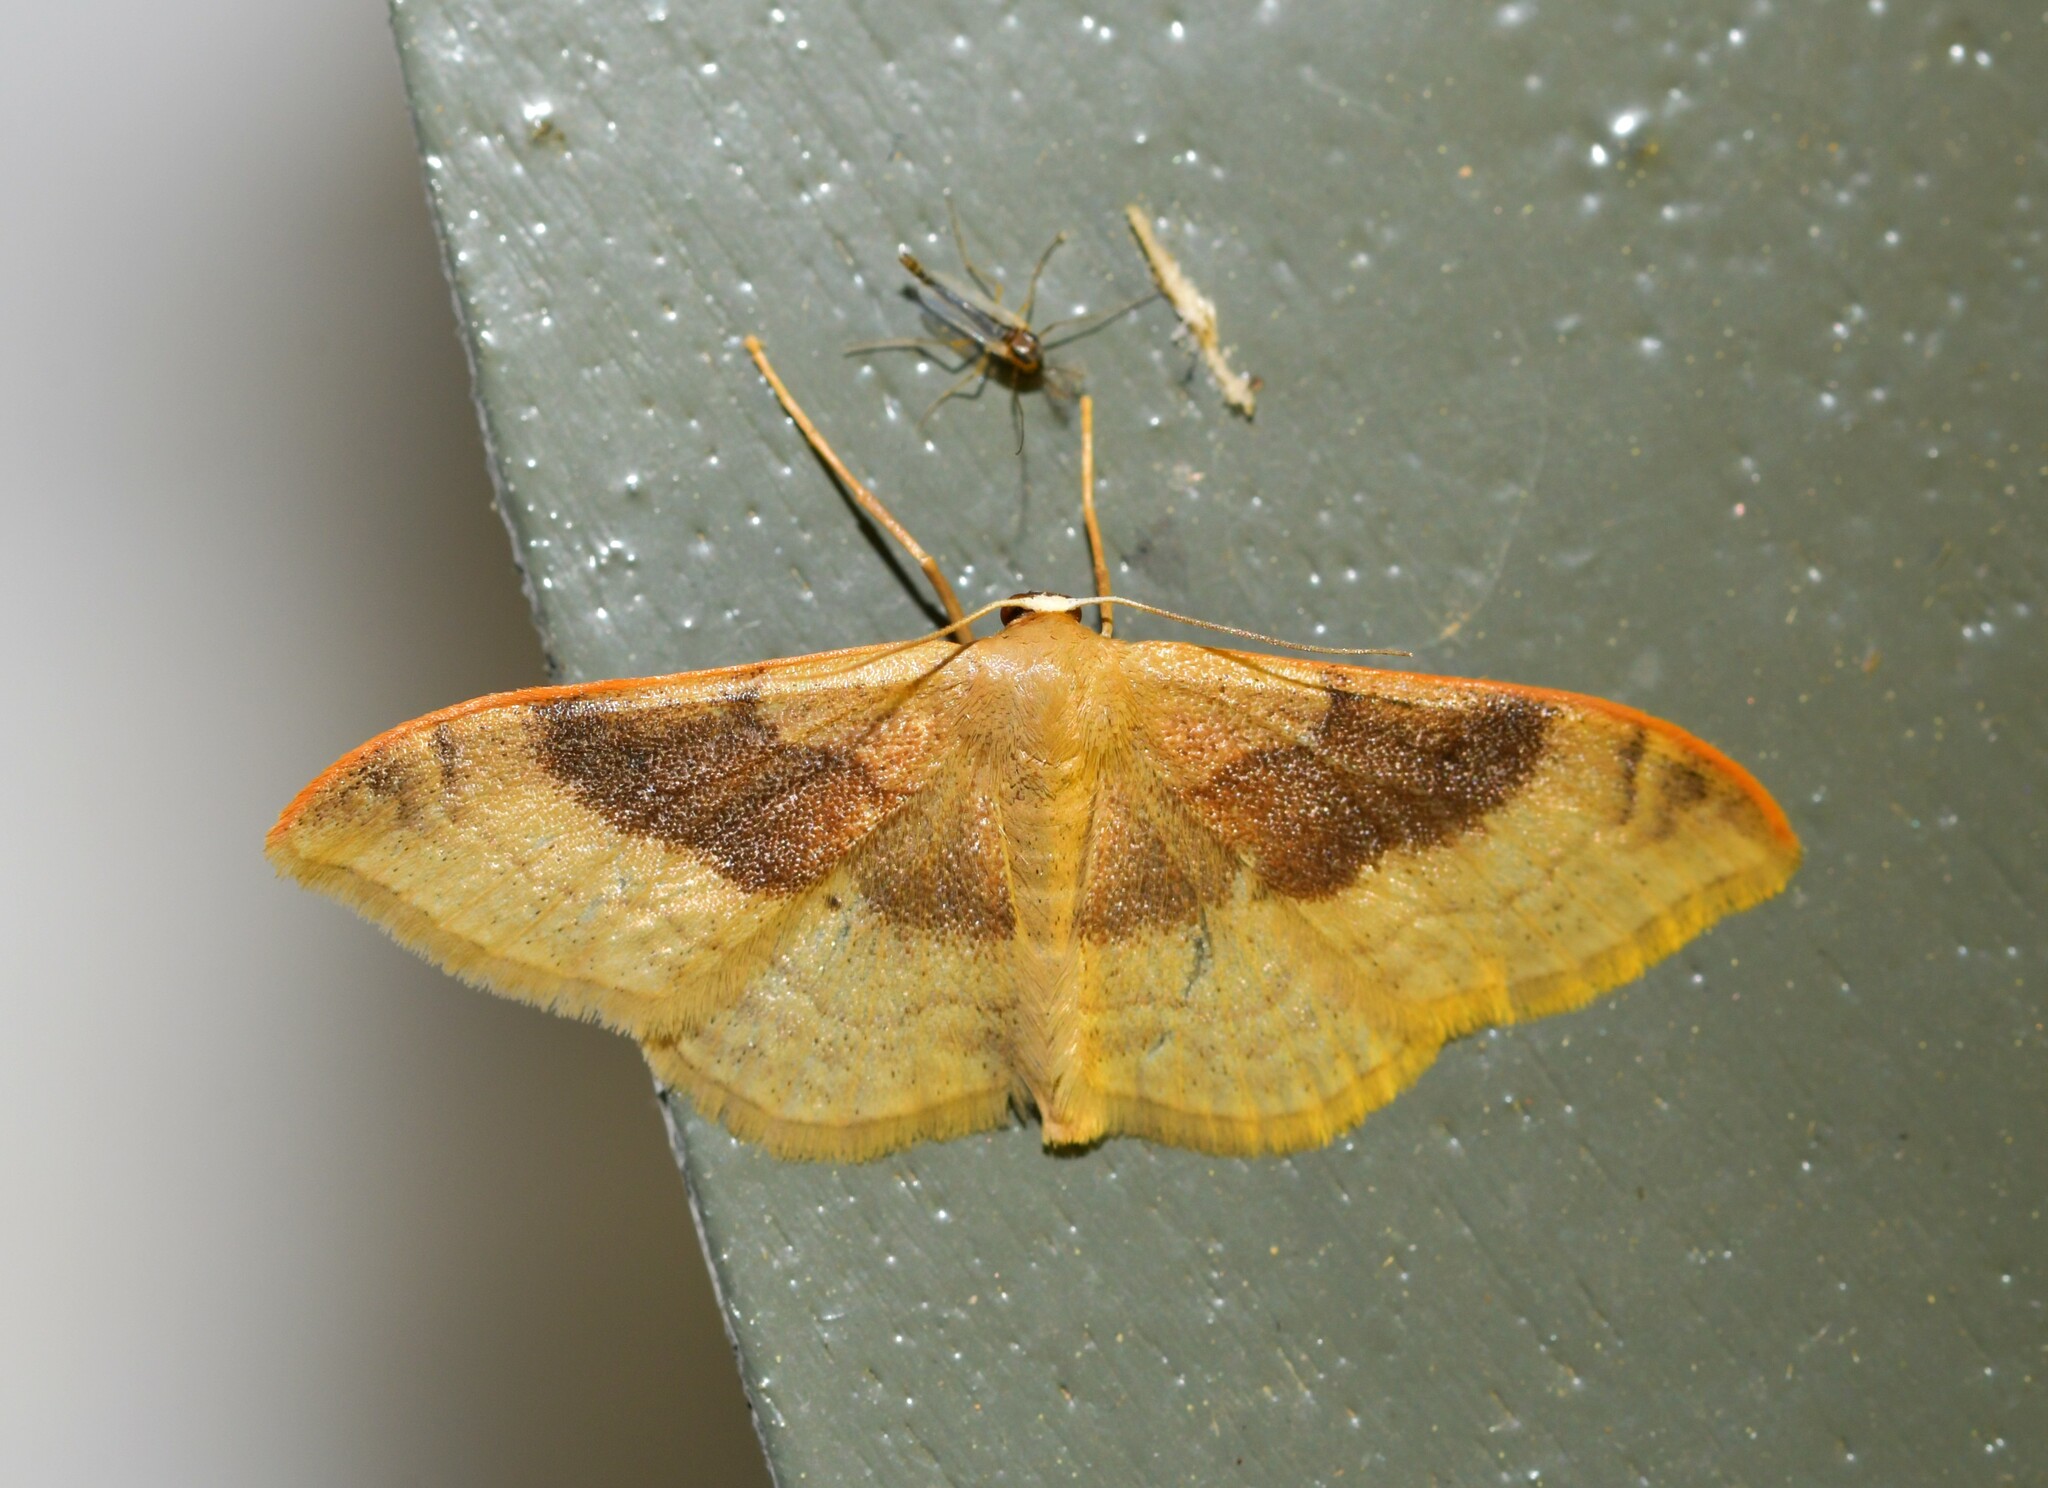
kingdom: Animalia
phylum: Arthropoda
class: Insecta
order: Lepidoptera
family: Geometridae
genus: Idaea
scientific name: Idaea degeneraria
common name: Portland ribbon wave
